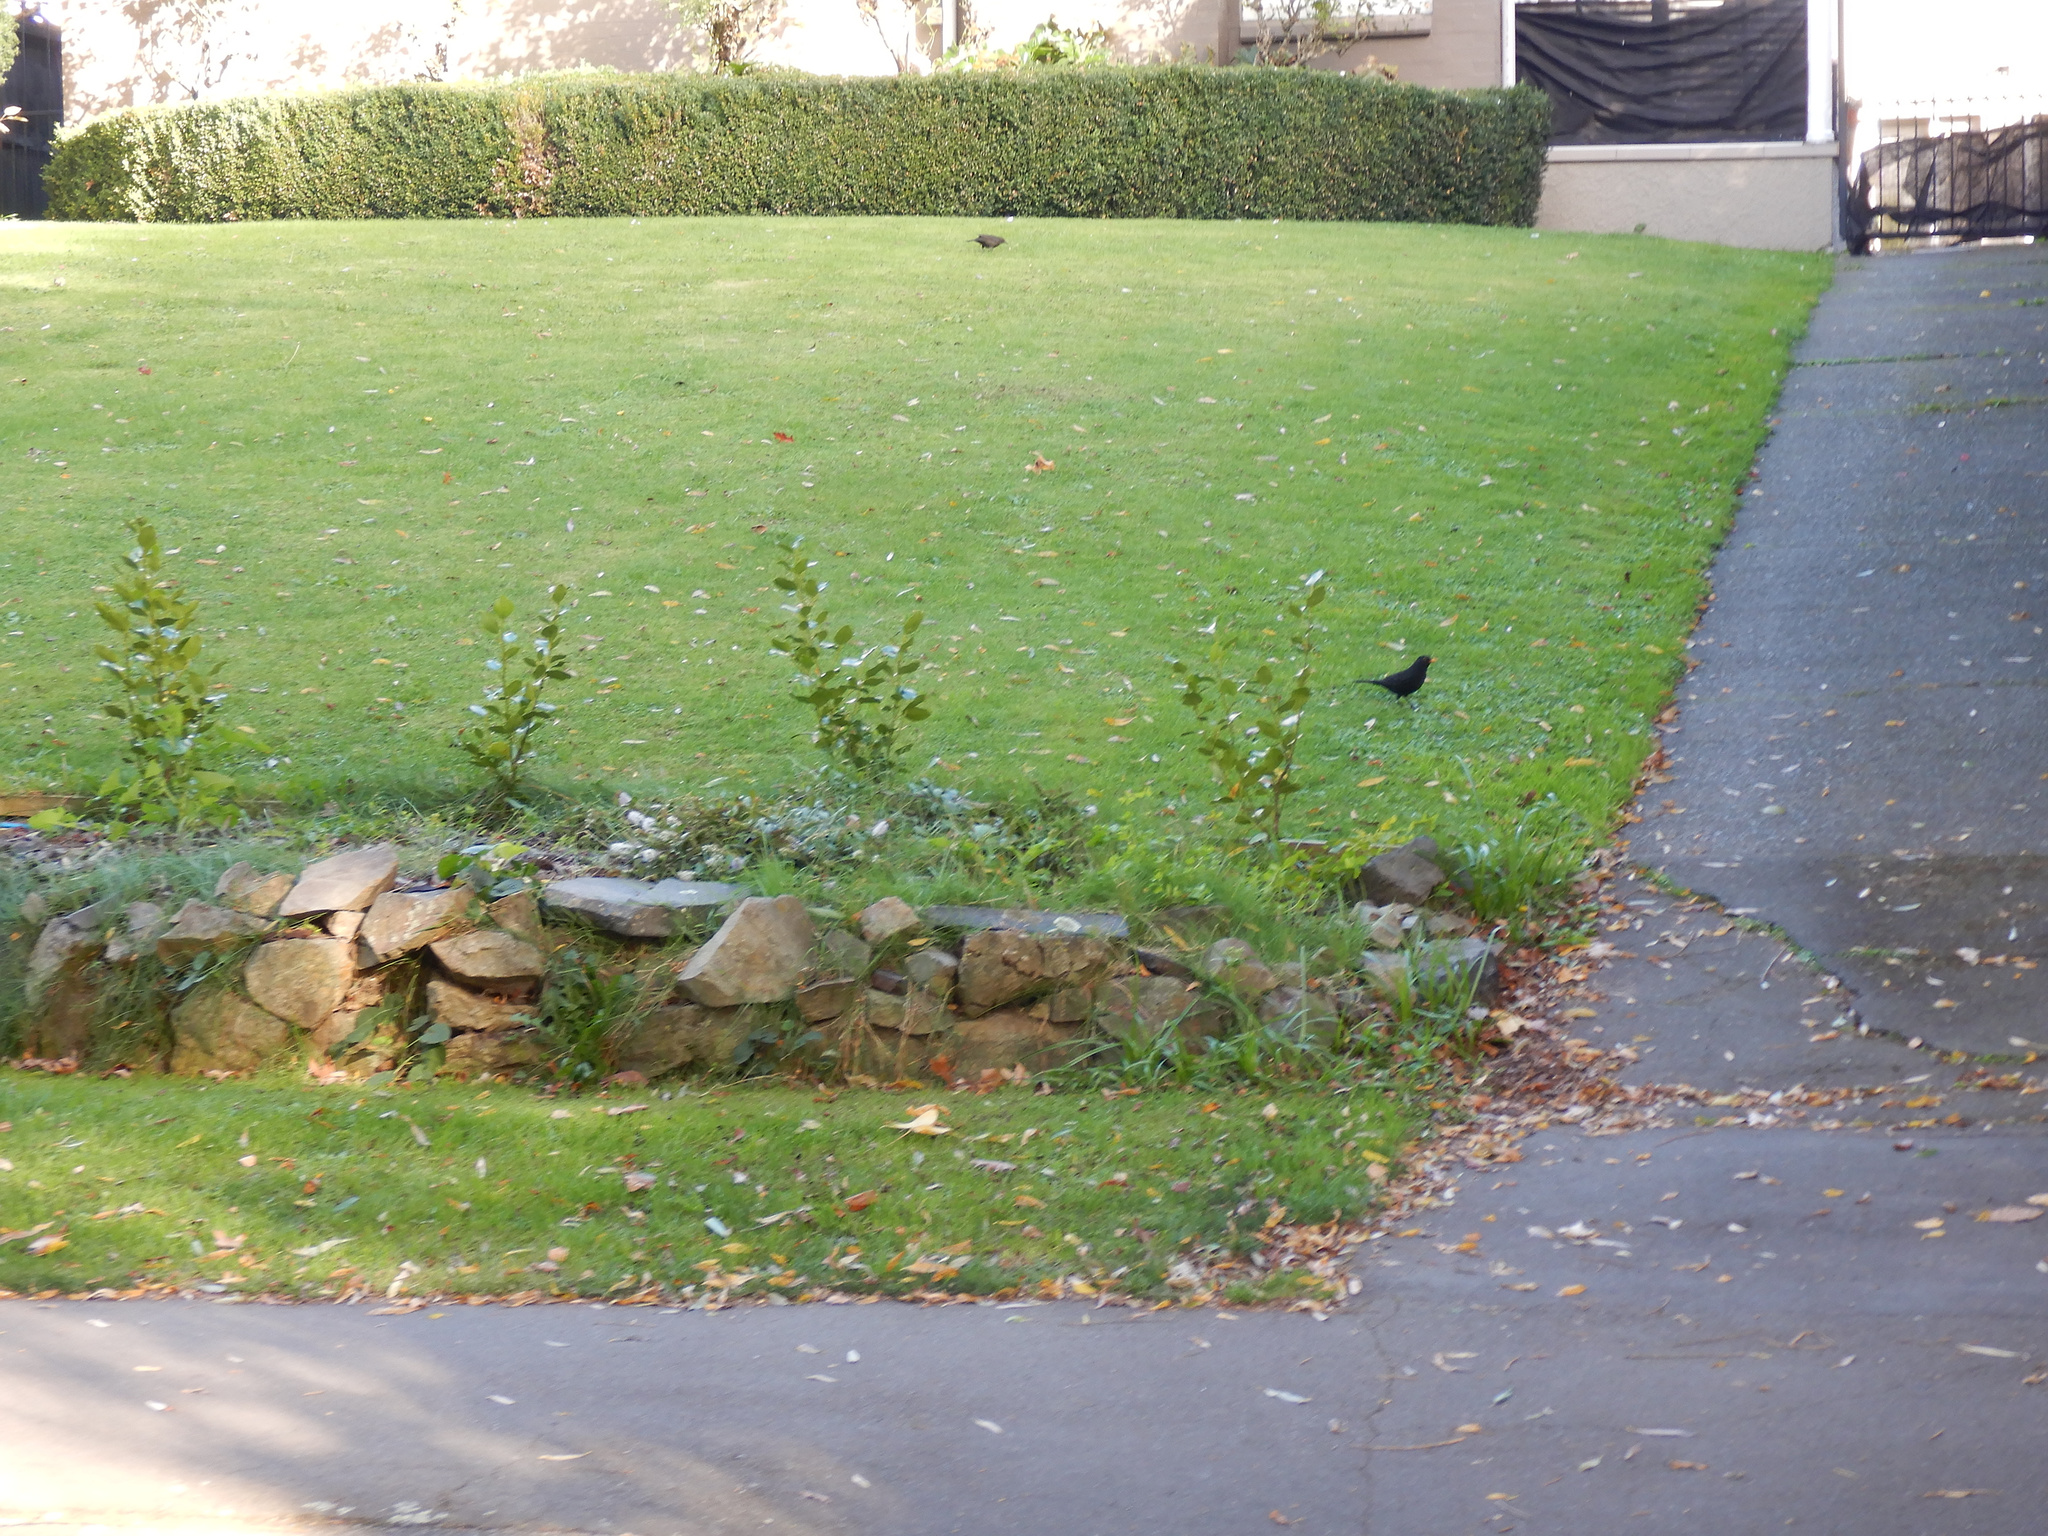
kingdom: Animalia
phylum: Chordata
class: Aves
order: Passeriformes
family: Turdidae
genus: Turdus
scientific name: Turdus merula
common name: Common blackbird
